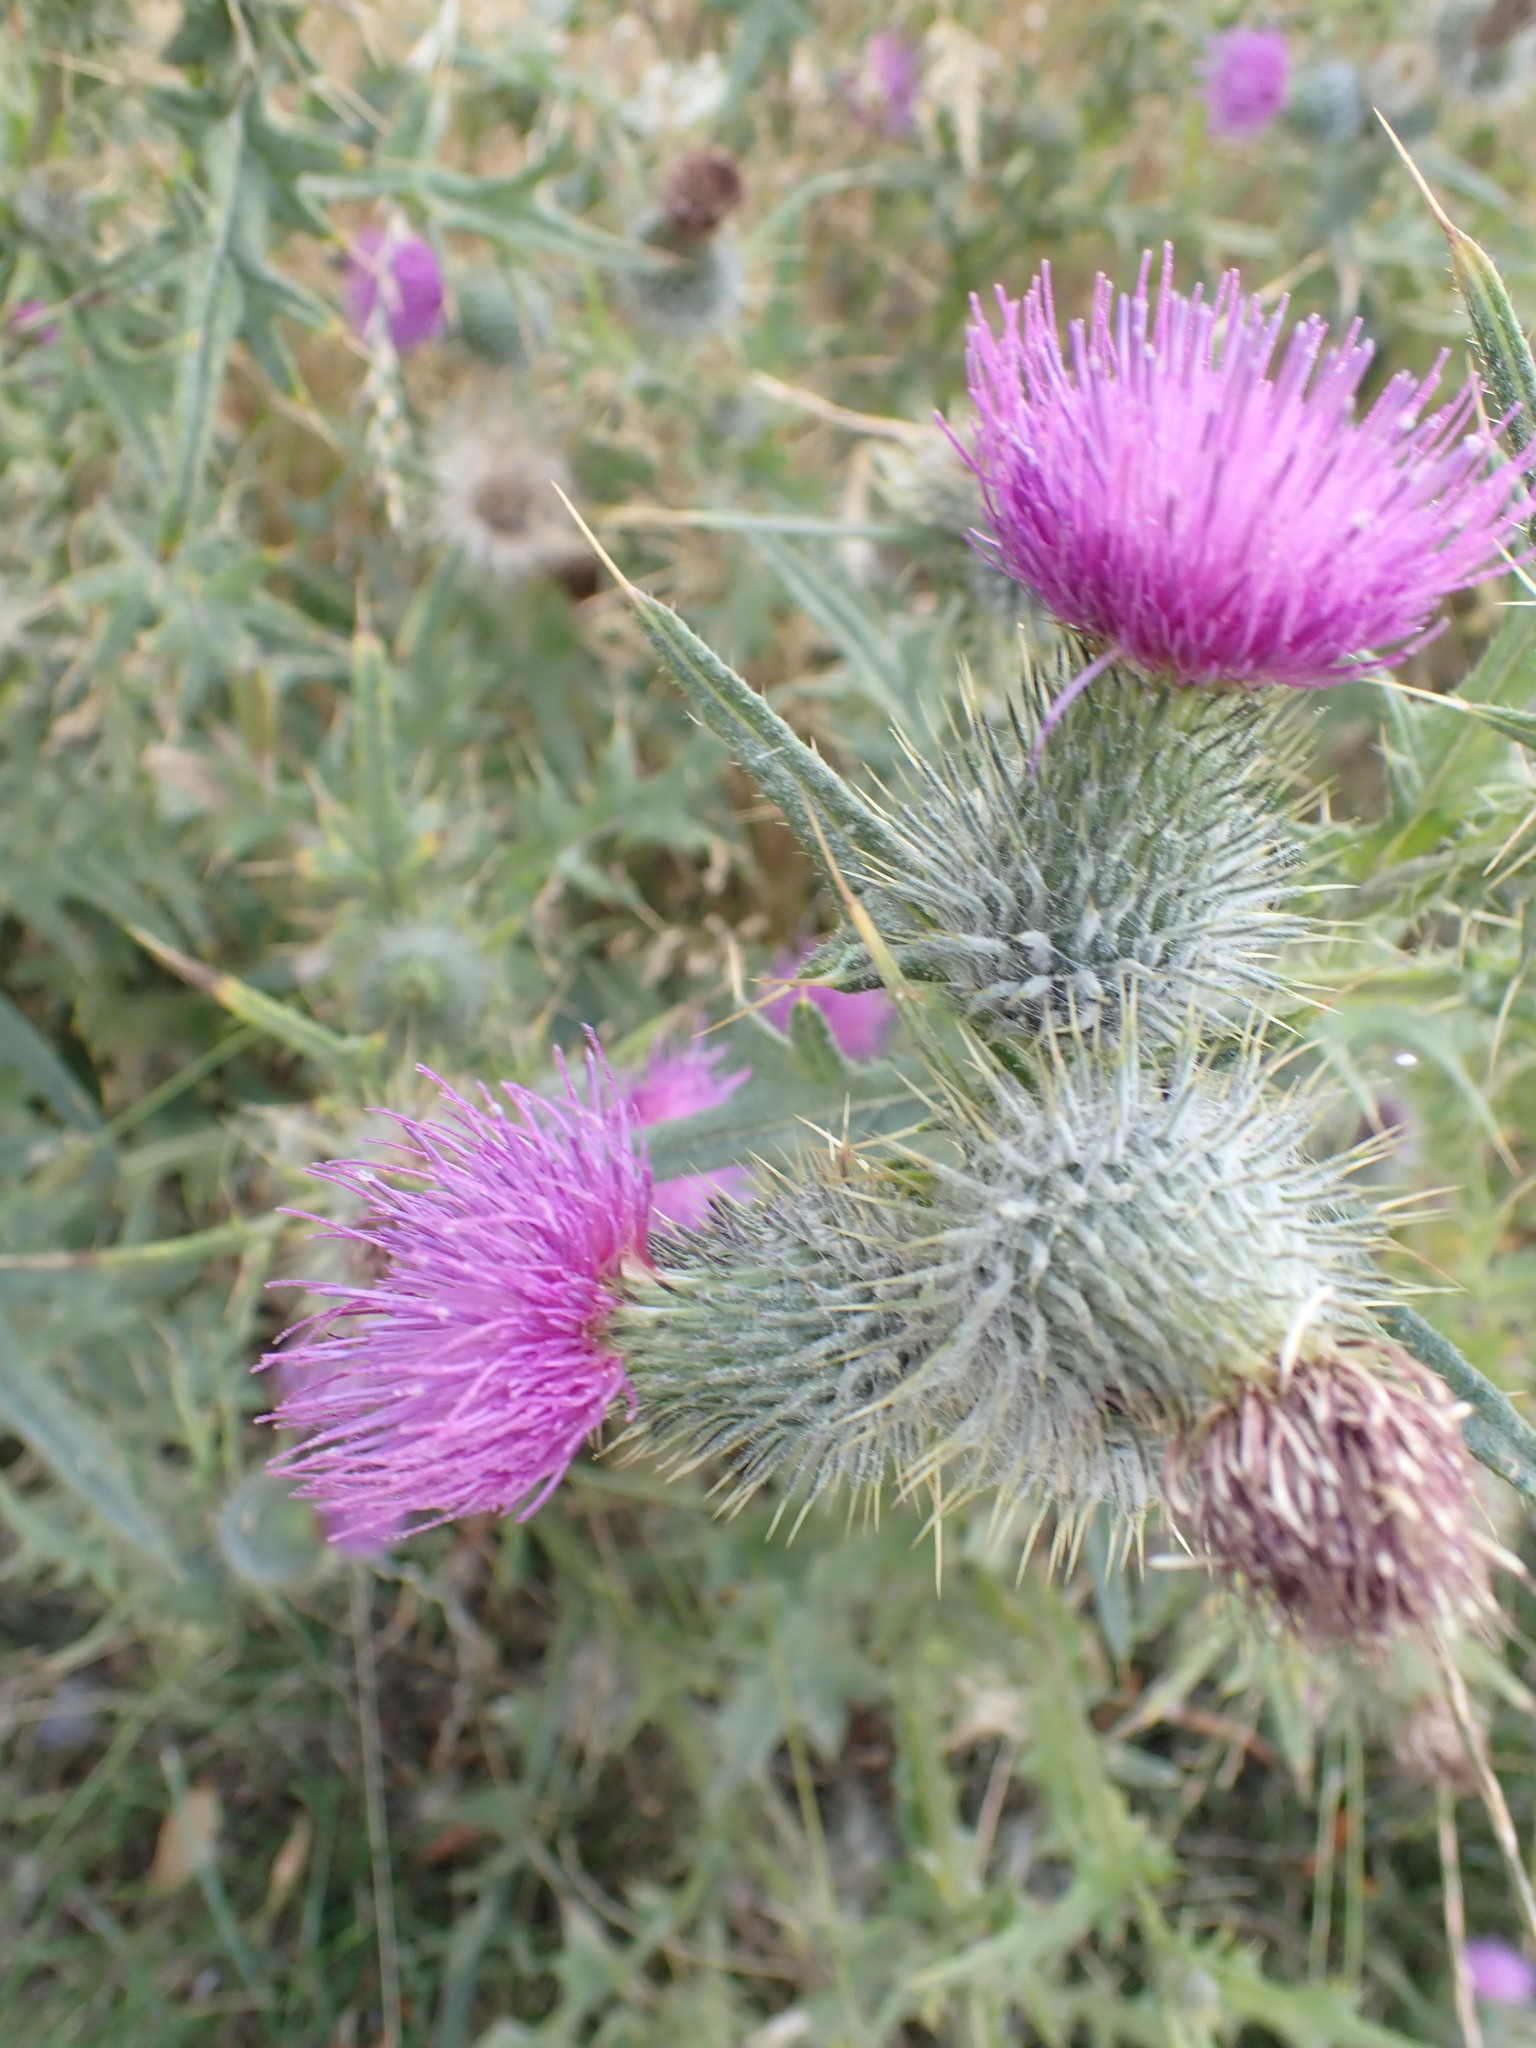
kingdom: Plantae
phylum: Tracheophyta
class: Magnoliopsida
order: Asterales
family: Asteraceae
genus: Cirsium
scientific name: Cirsium vulgare
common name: Bull thistle
